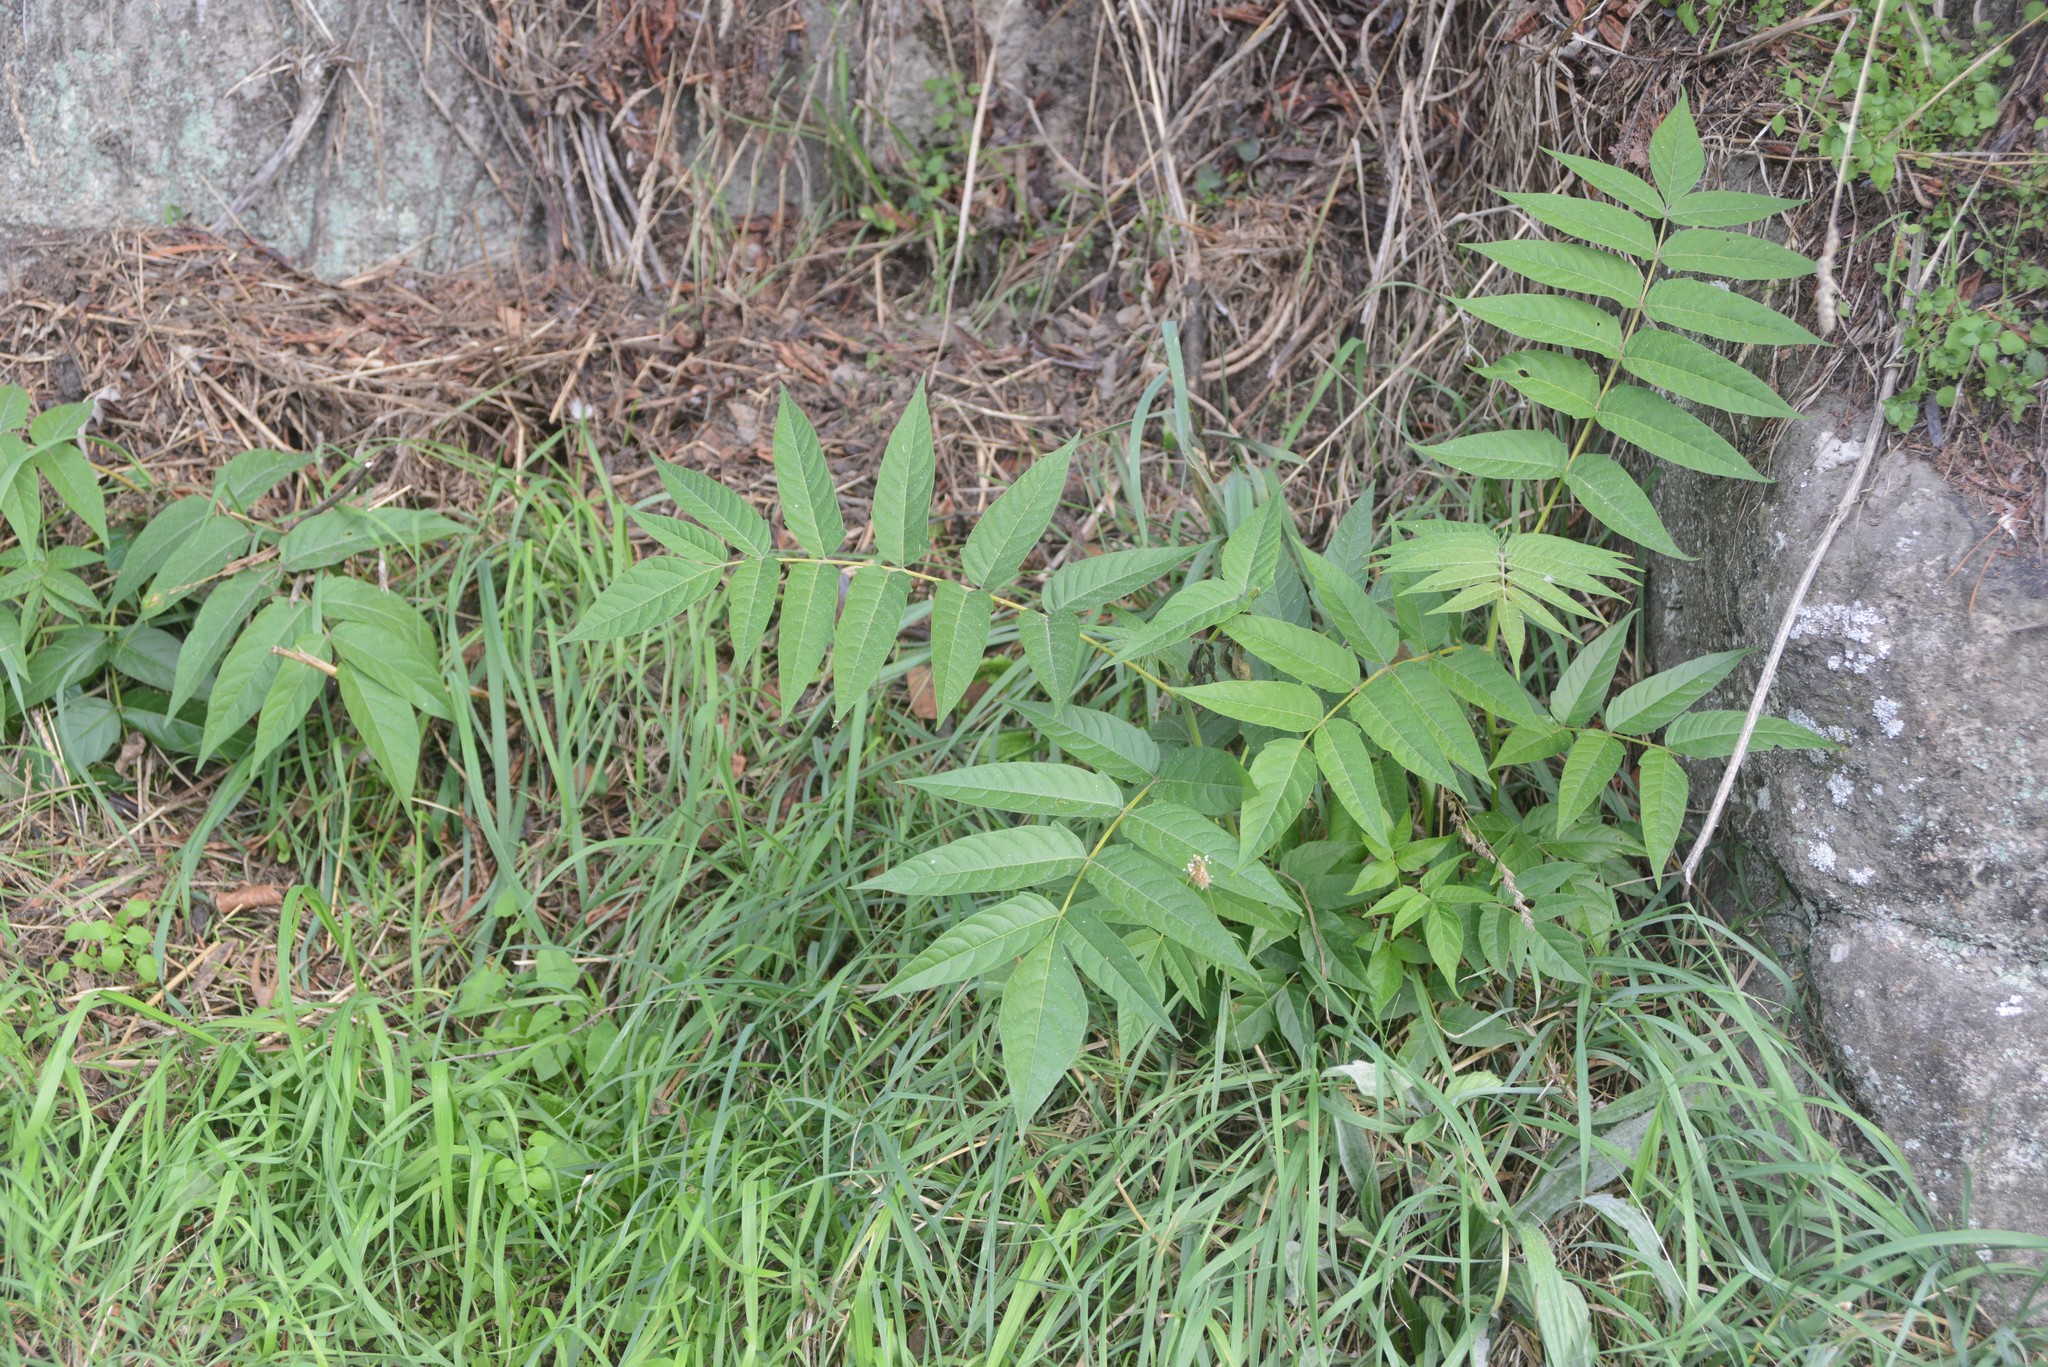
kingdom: Plantae
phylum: Tracheophyta
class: Magnoliopsida
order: Sapindales
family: Simaroubaceae
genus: Ailanthus
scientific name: Ailanthus altissima
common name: Tree-of-heaven
